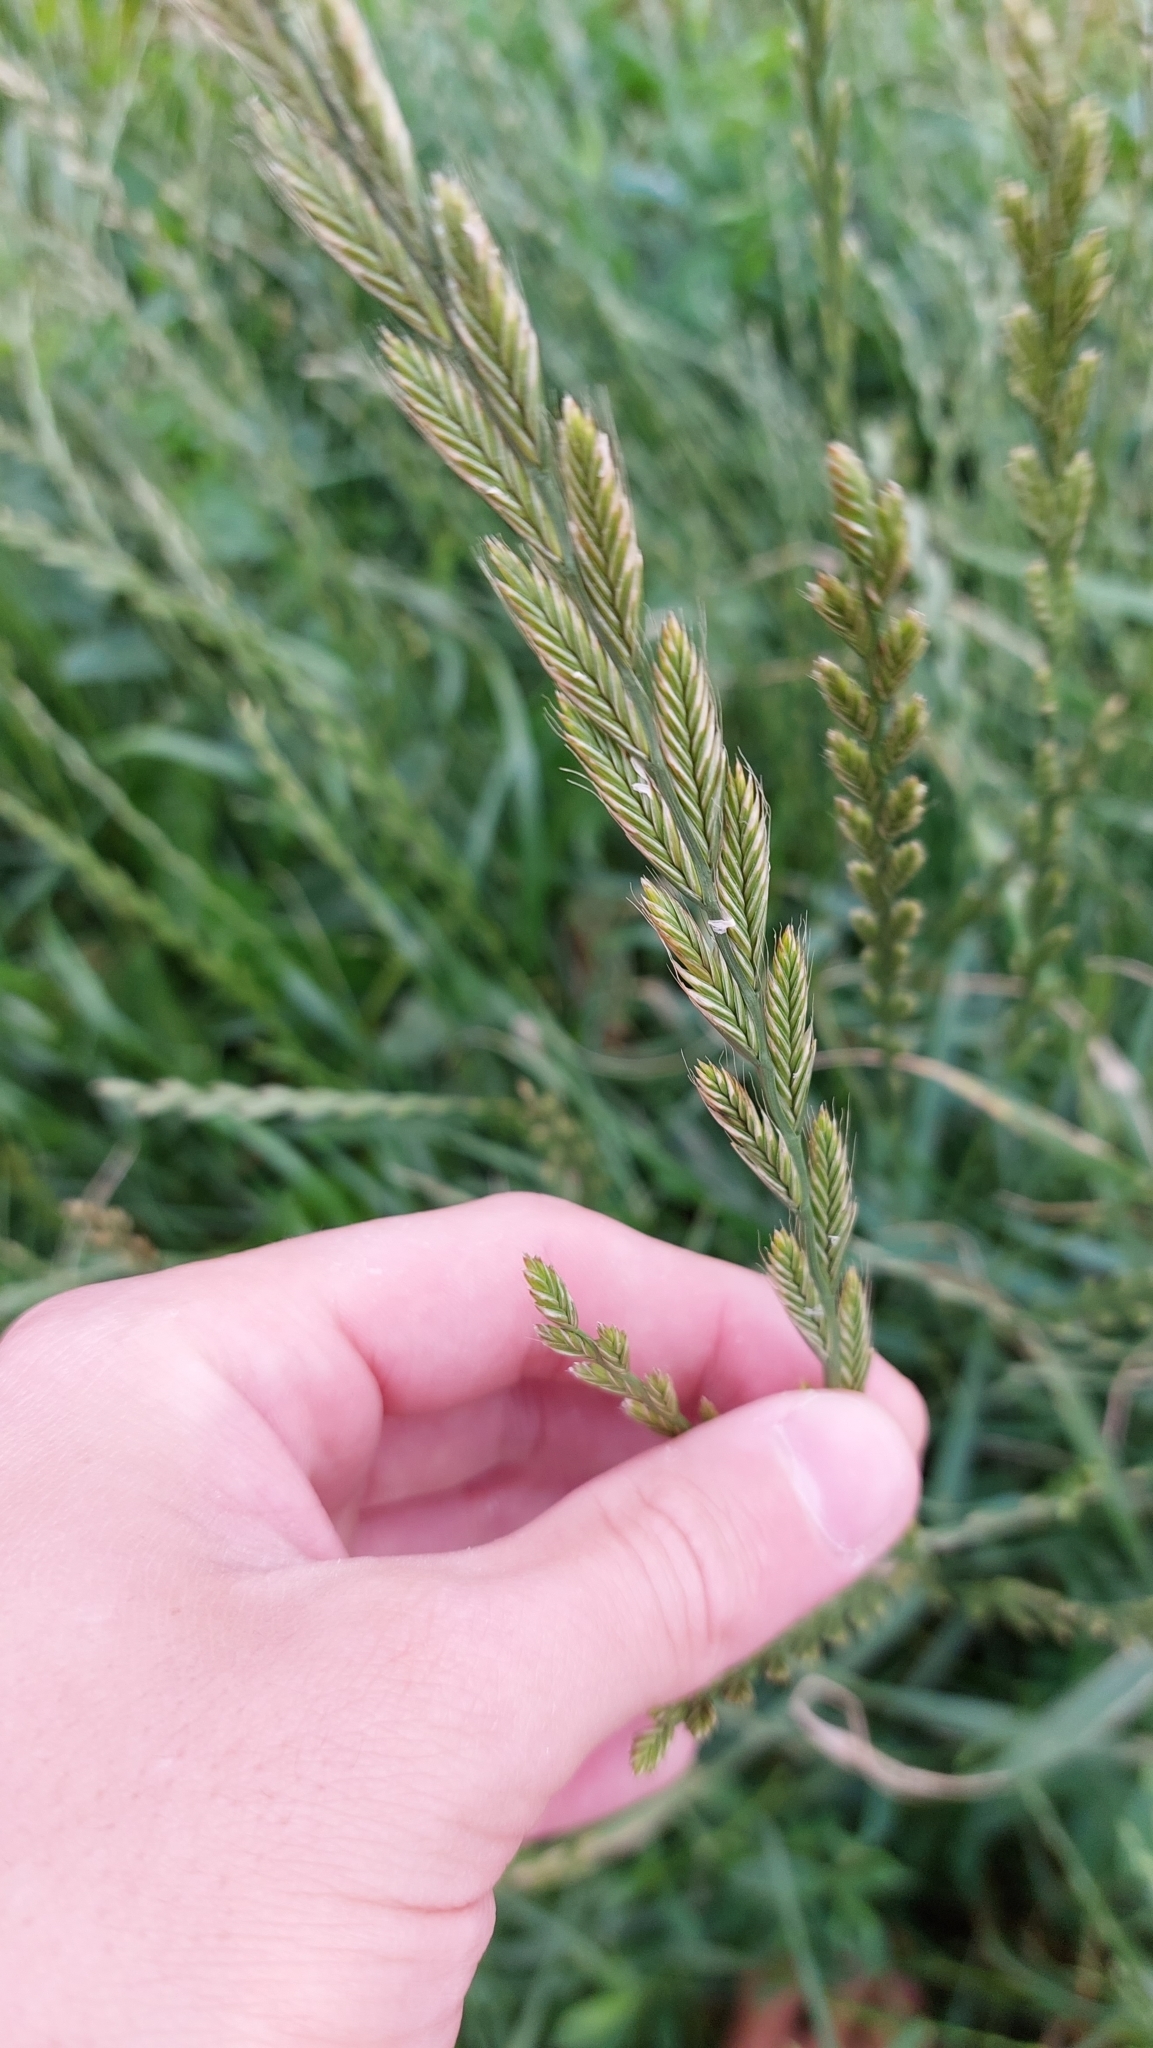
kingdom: Plantae
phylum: Tracheophyta
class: Liliopsida
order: Poales
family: Poaceae
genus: Lolium
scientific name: Lolium multiflorum
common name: Annual ryegrass
